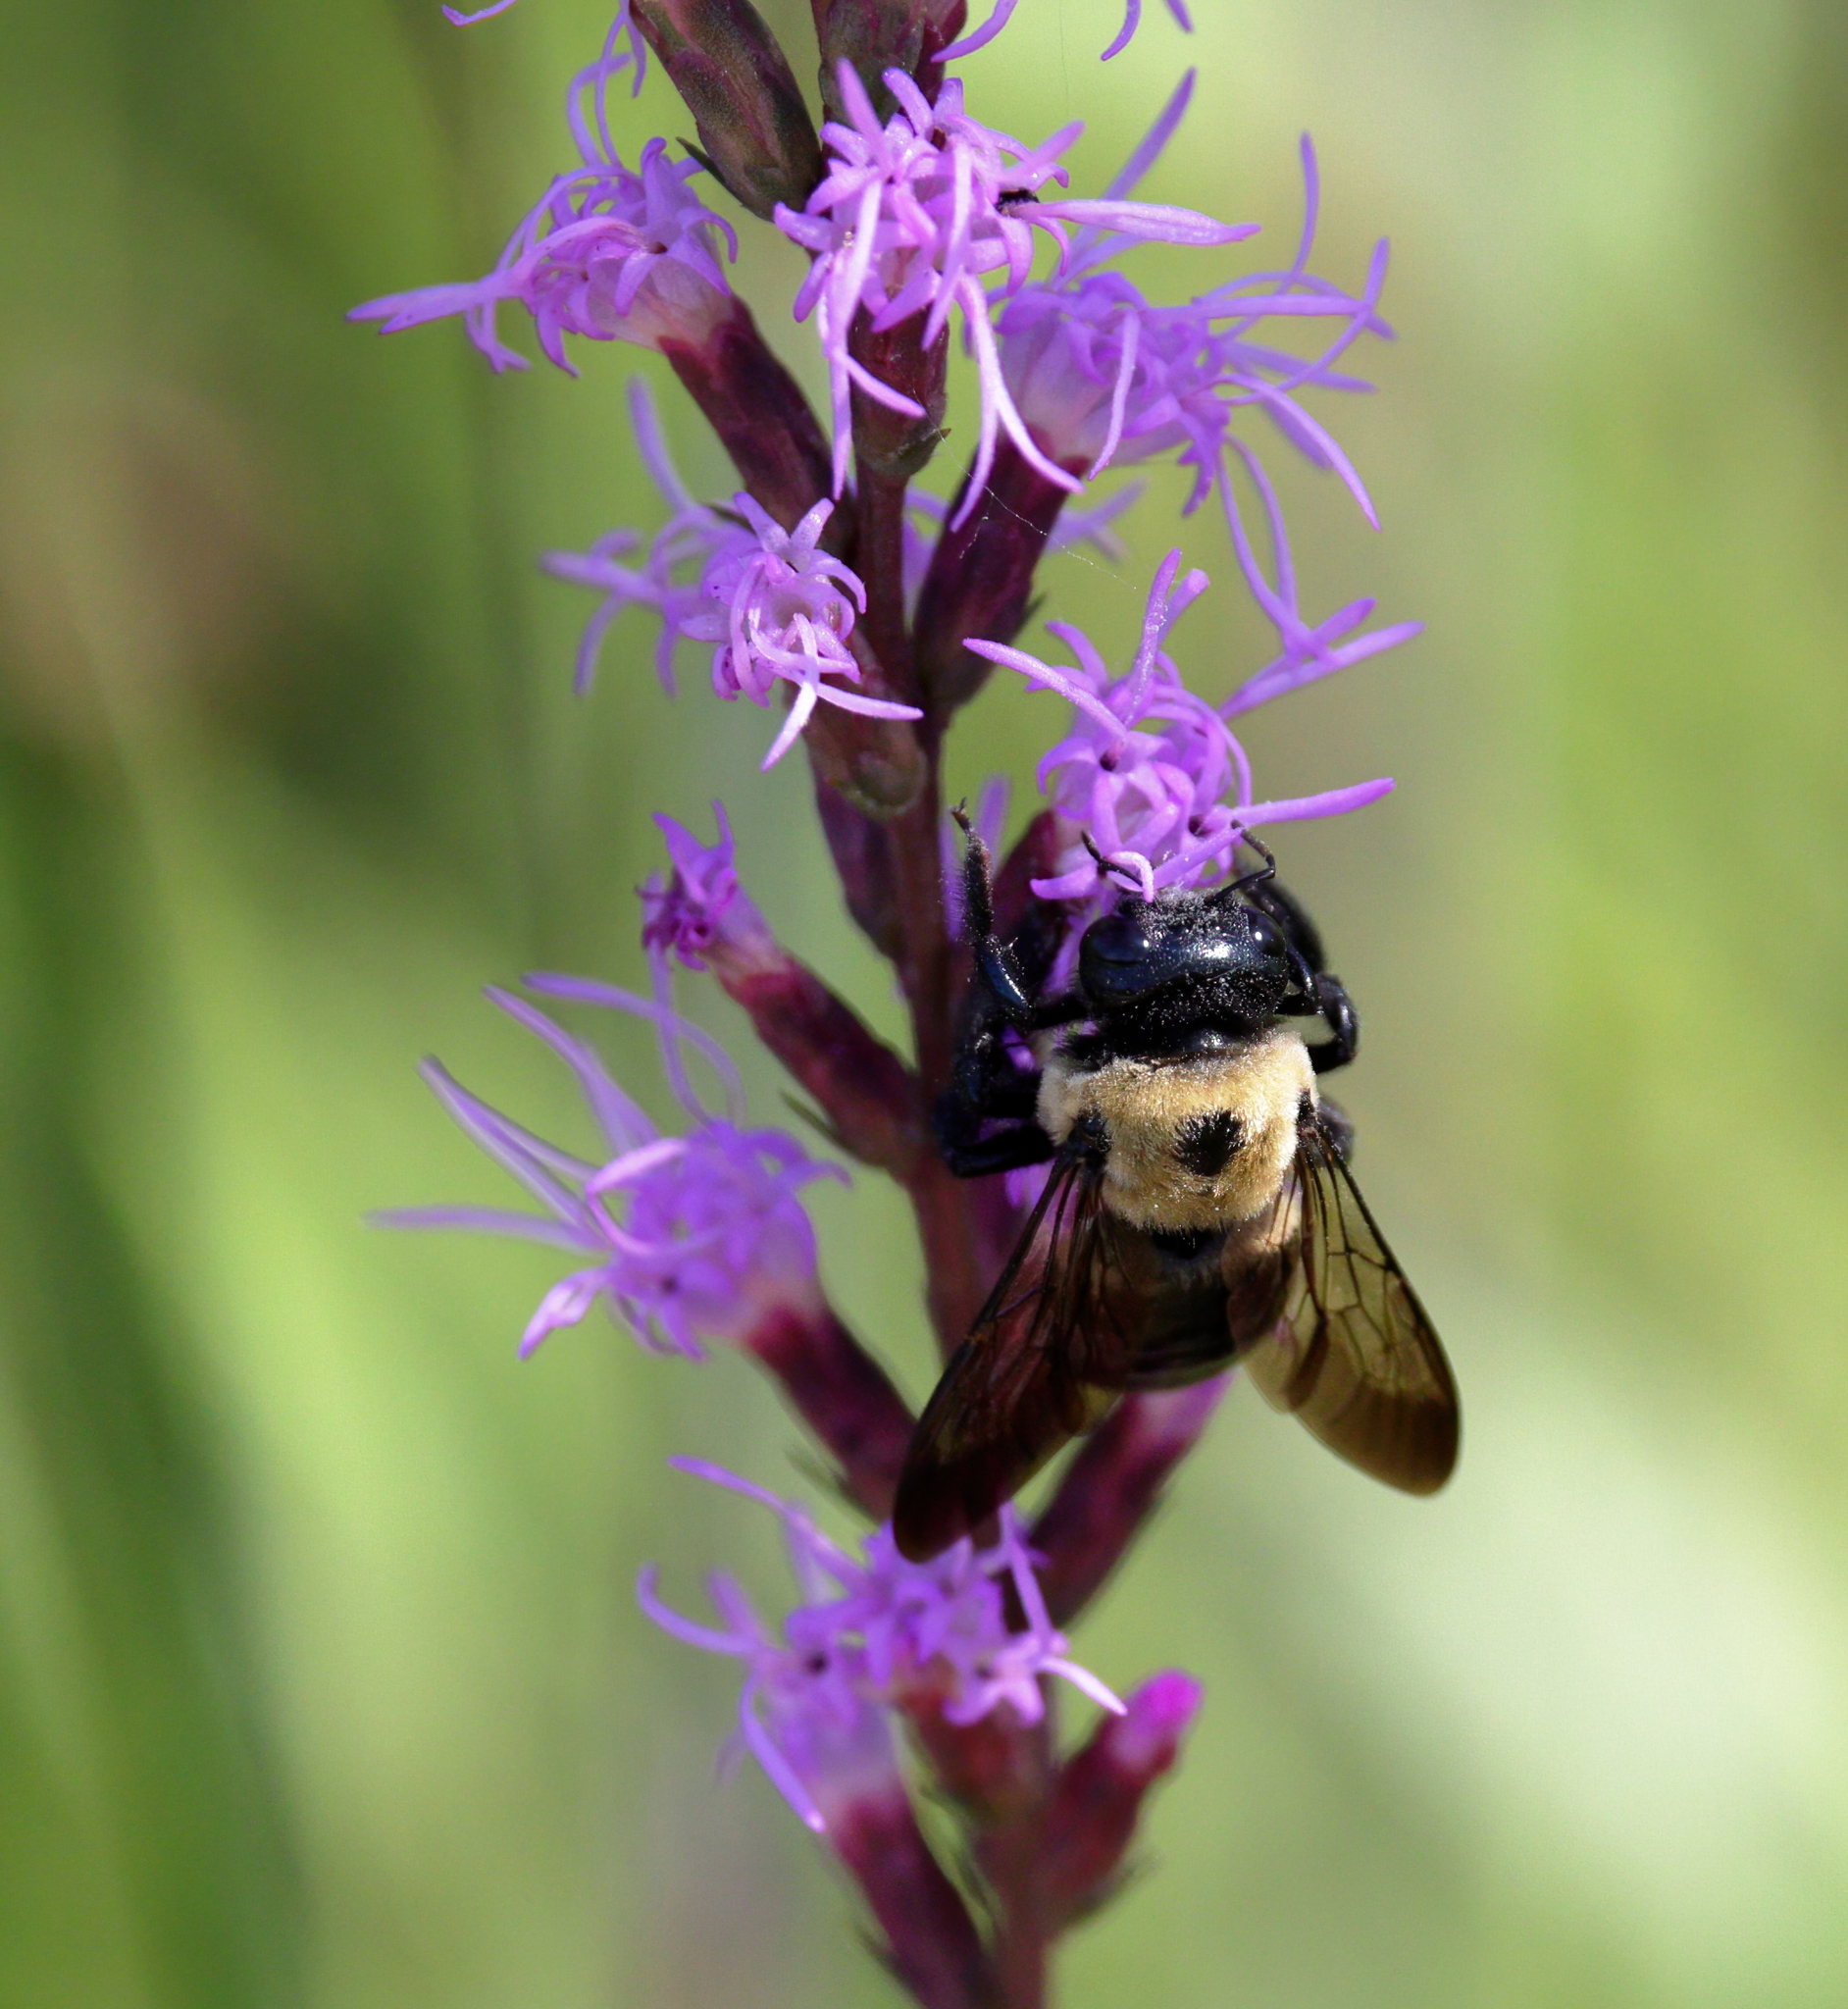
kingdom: Animalia
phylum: Arthropoda
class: Insecta
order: Hymenoptera
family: Apidae
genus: Xylocopa
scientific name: Xylocopa virginica
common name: Carpenter bee
